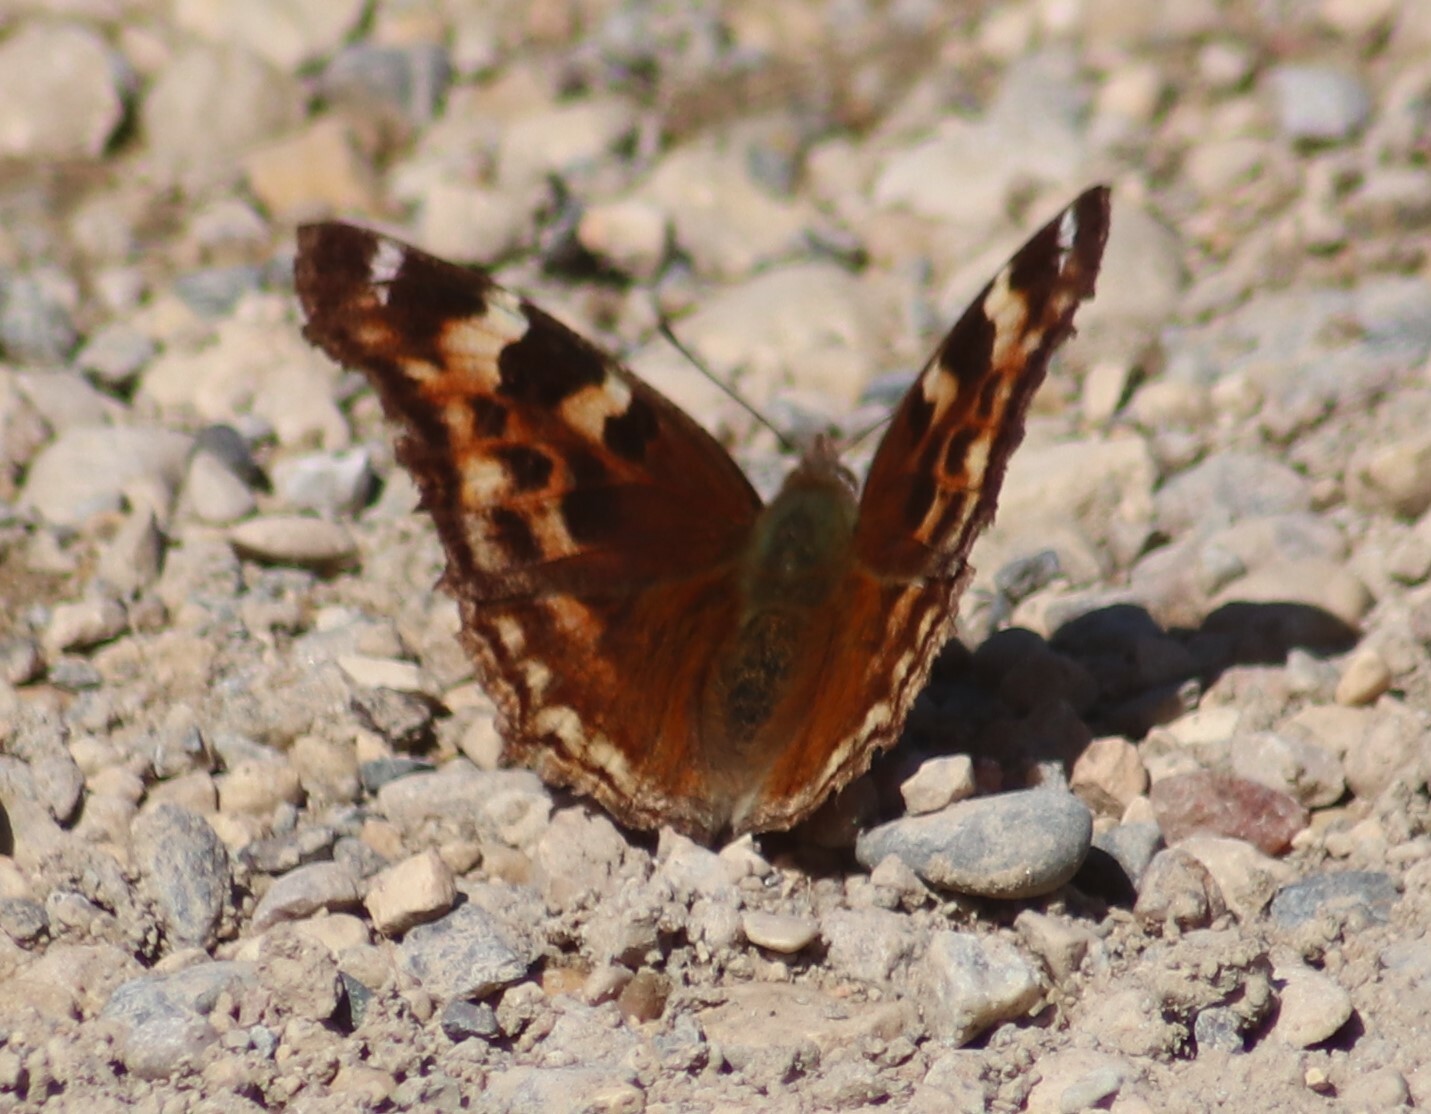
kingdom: Animalia
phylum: Arthropoda
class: Insecta
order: Lepidoptera
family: Nymphalidae
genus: Polygonia
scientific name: Polygonia vaualbum
